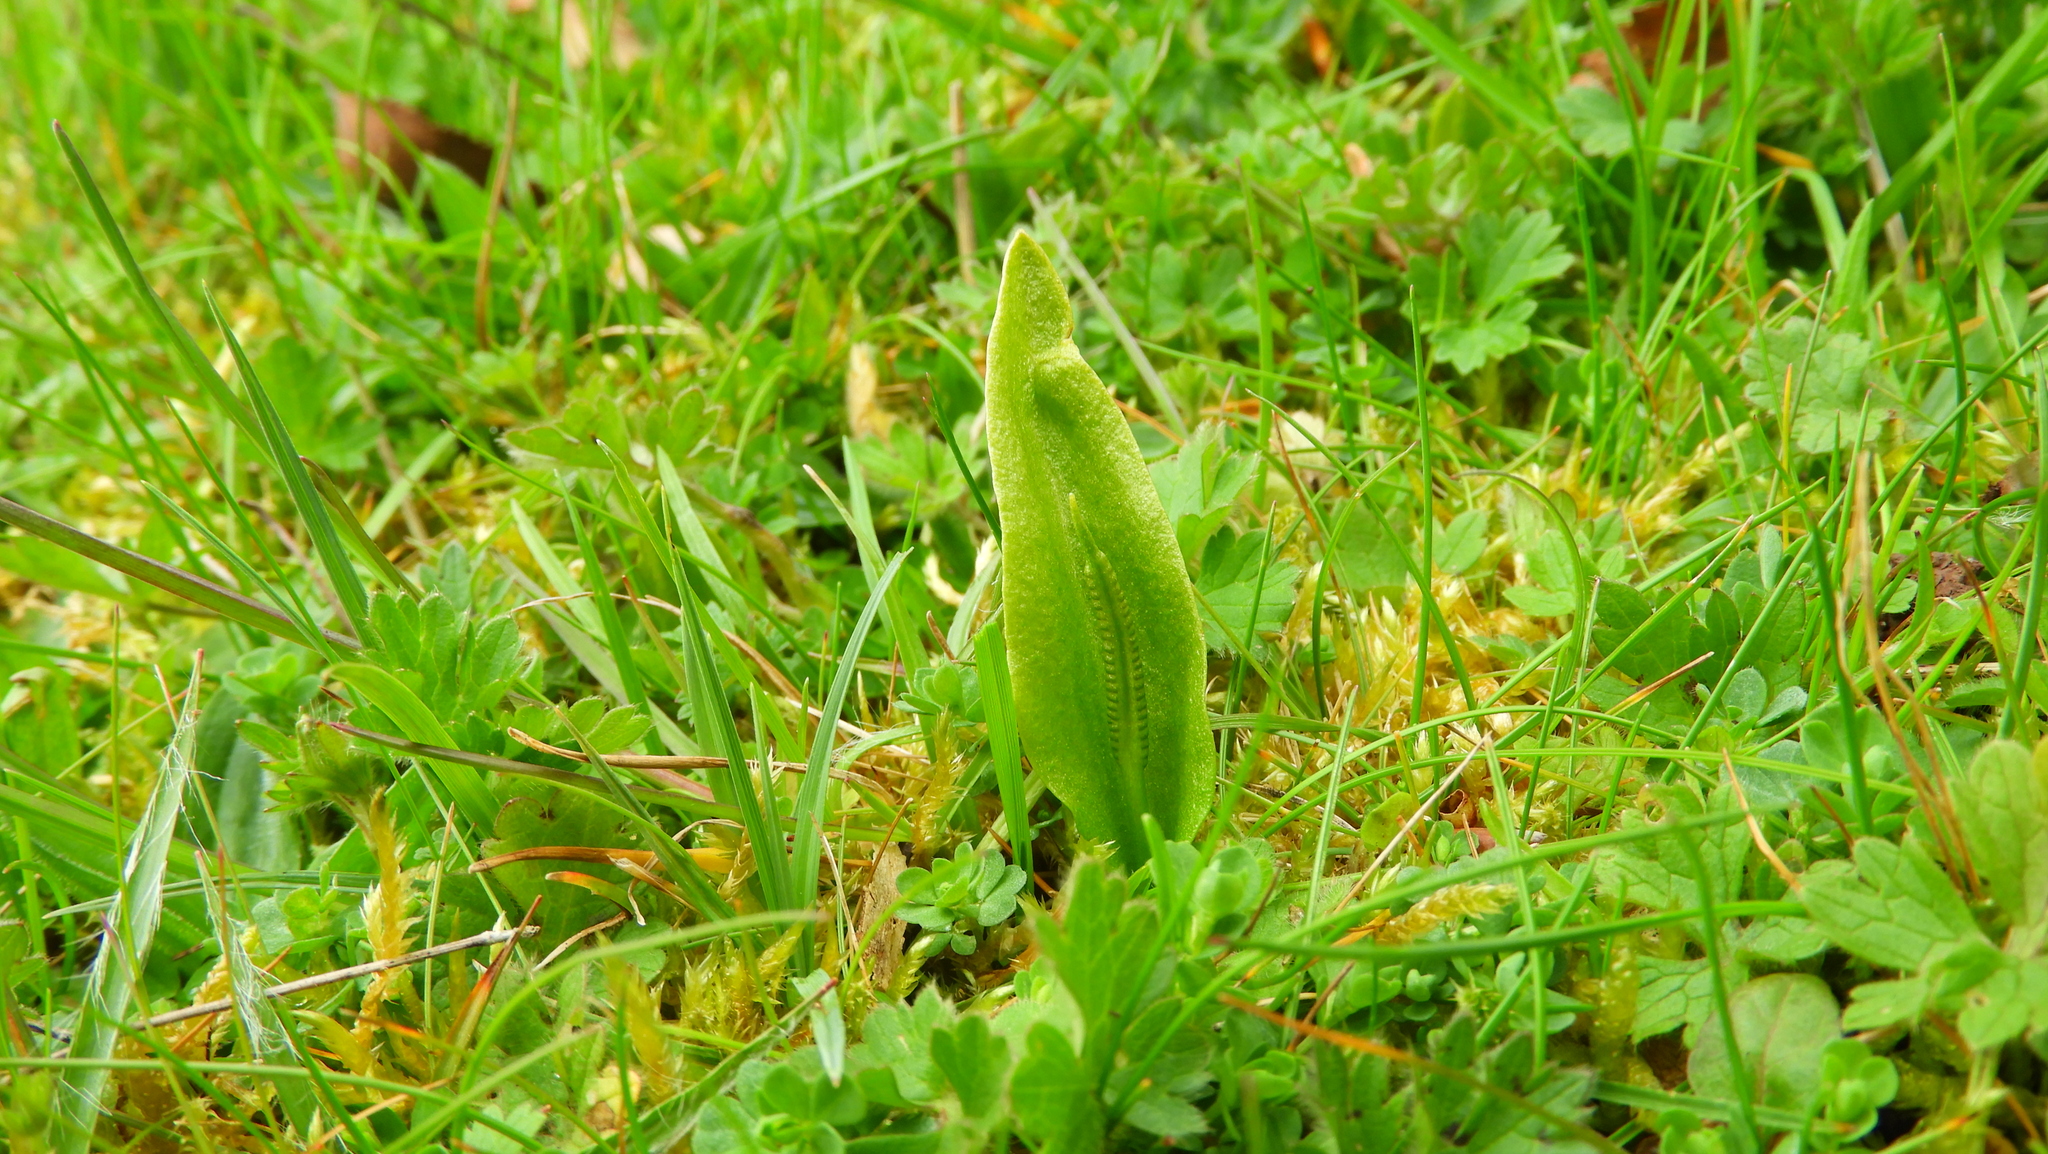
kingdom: Plantae
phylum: Tracheophyta
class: Polypodiopsida
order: Ophioglossales
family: Ophioglossaceae
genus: Ophioglossum
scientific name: Ophioglossum vulgatum
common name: Adder's-tongue
